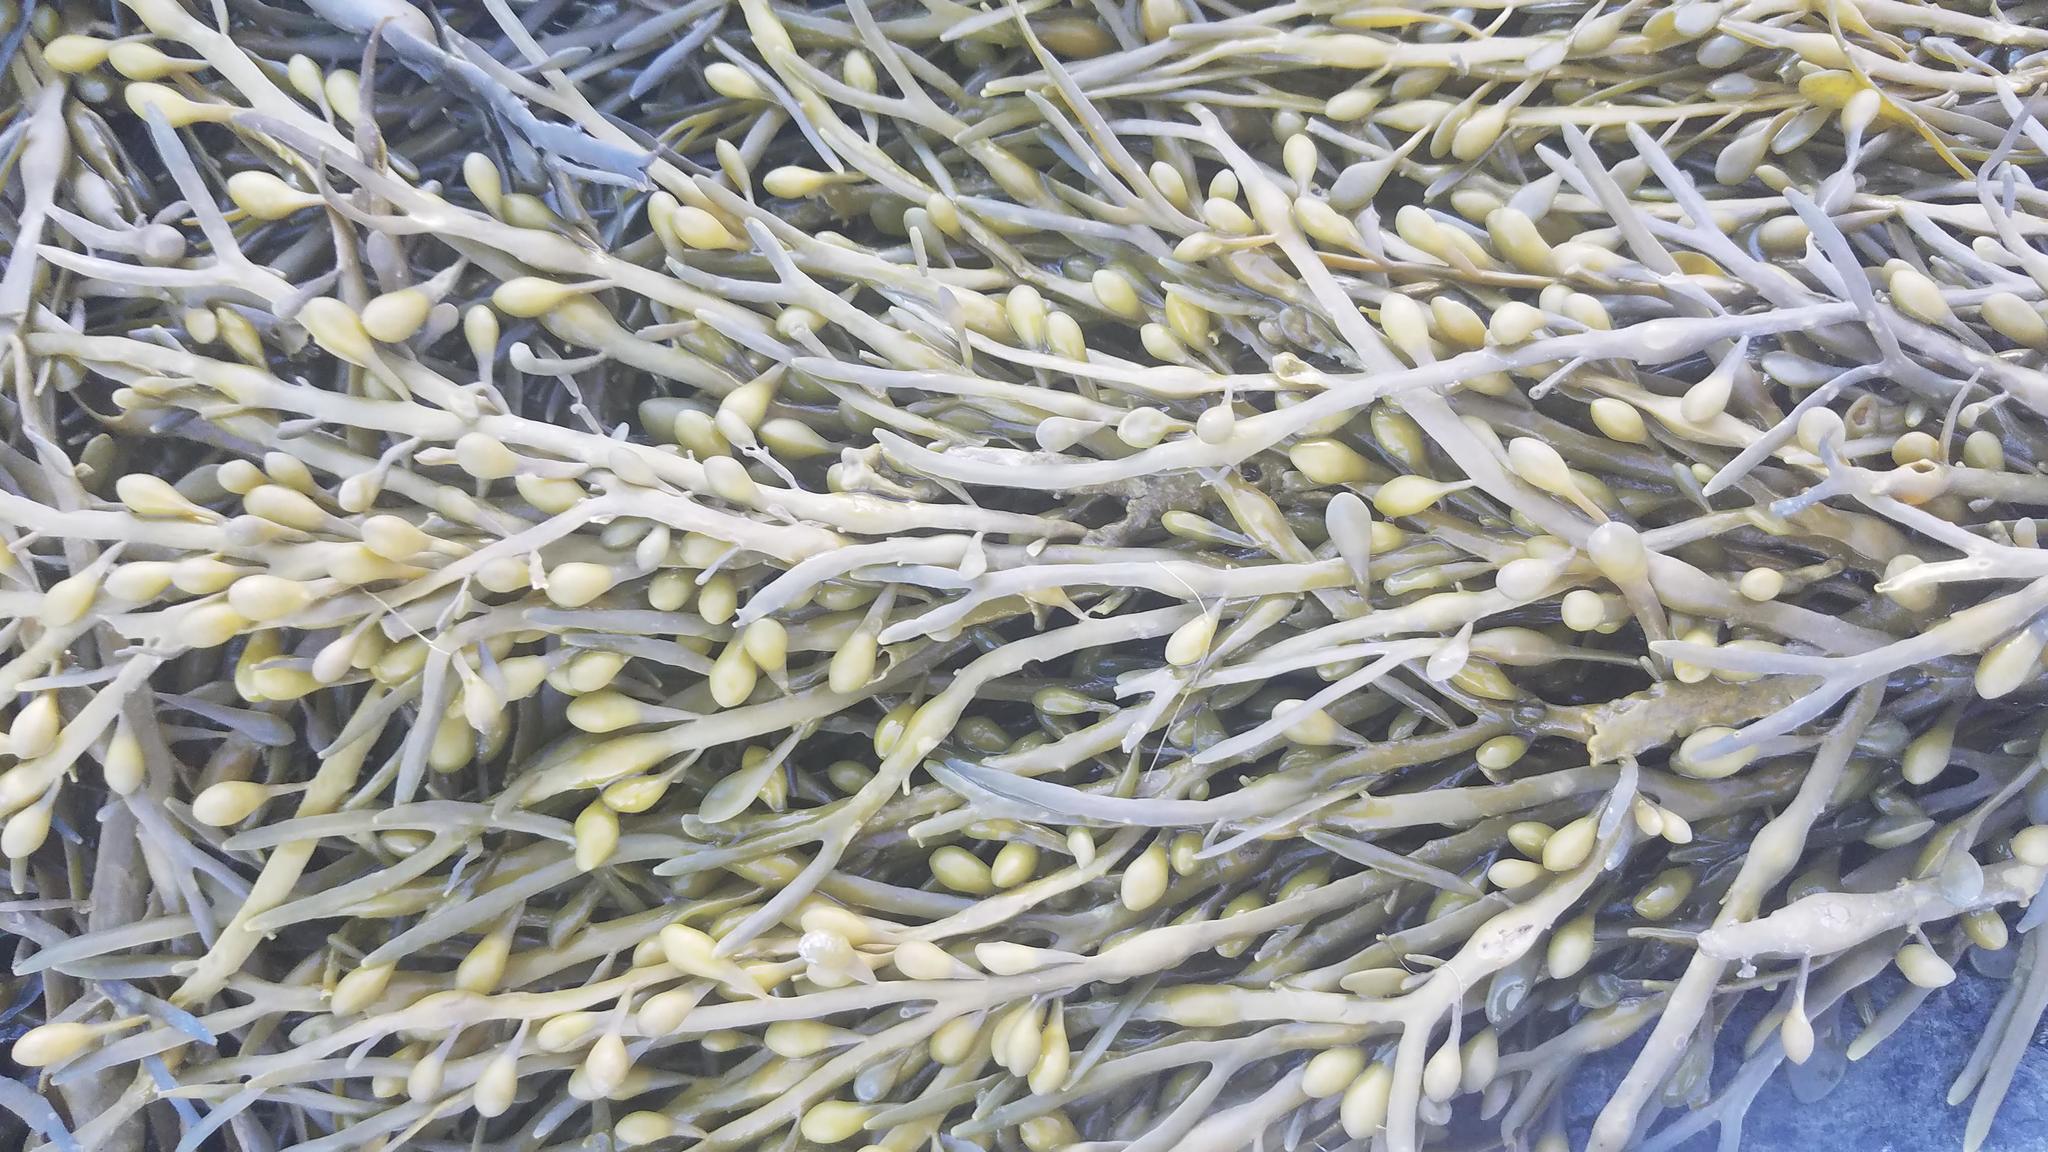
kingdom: Chromista
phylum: Ochrophyta
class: Phaeophyceae
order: Fucales
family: Fucaceae
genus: Ascophyllum
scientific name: Ascophyllum nodosum
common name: Knotted wrack
